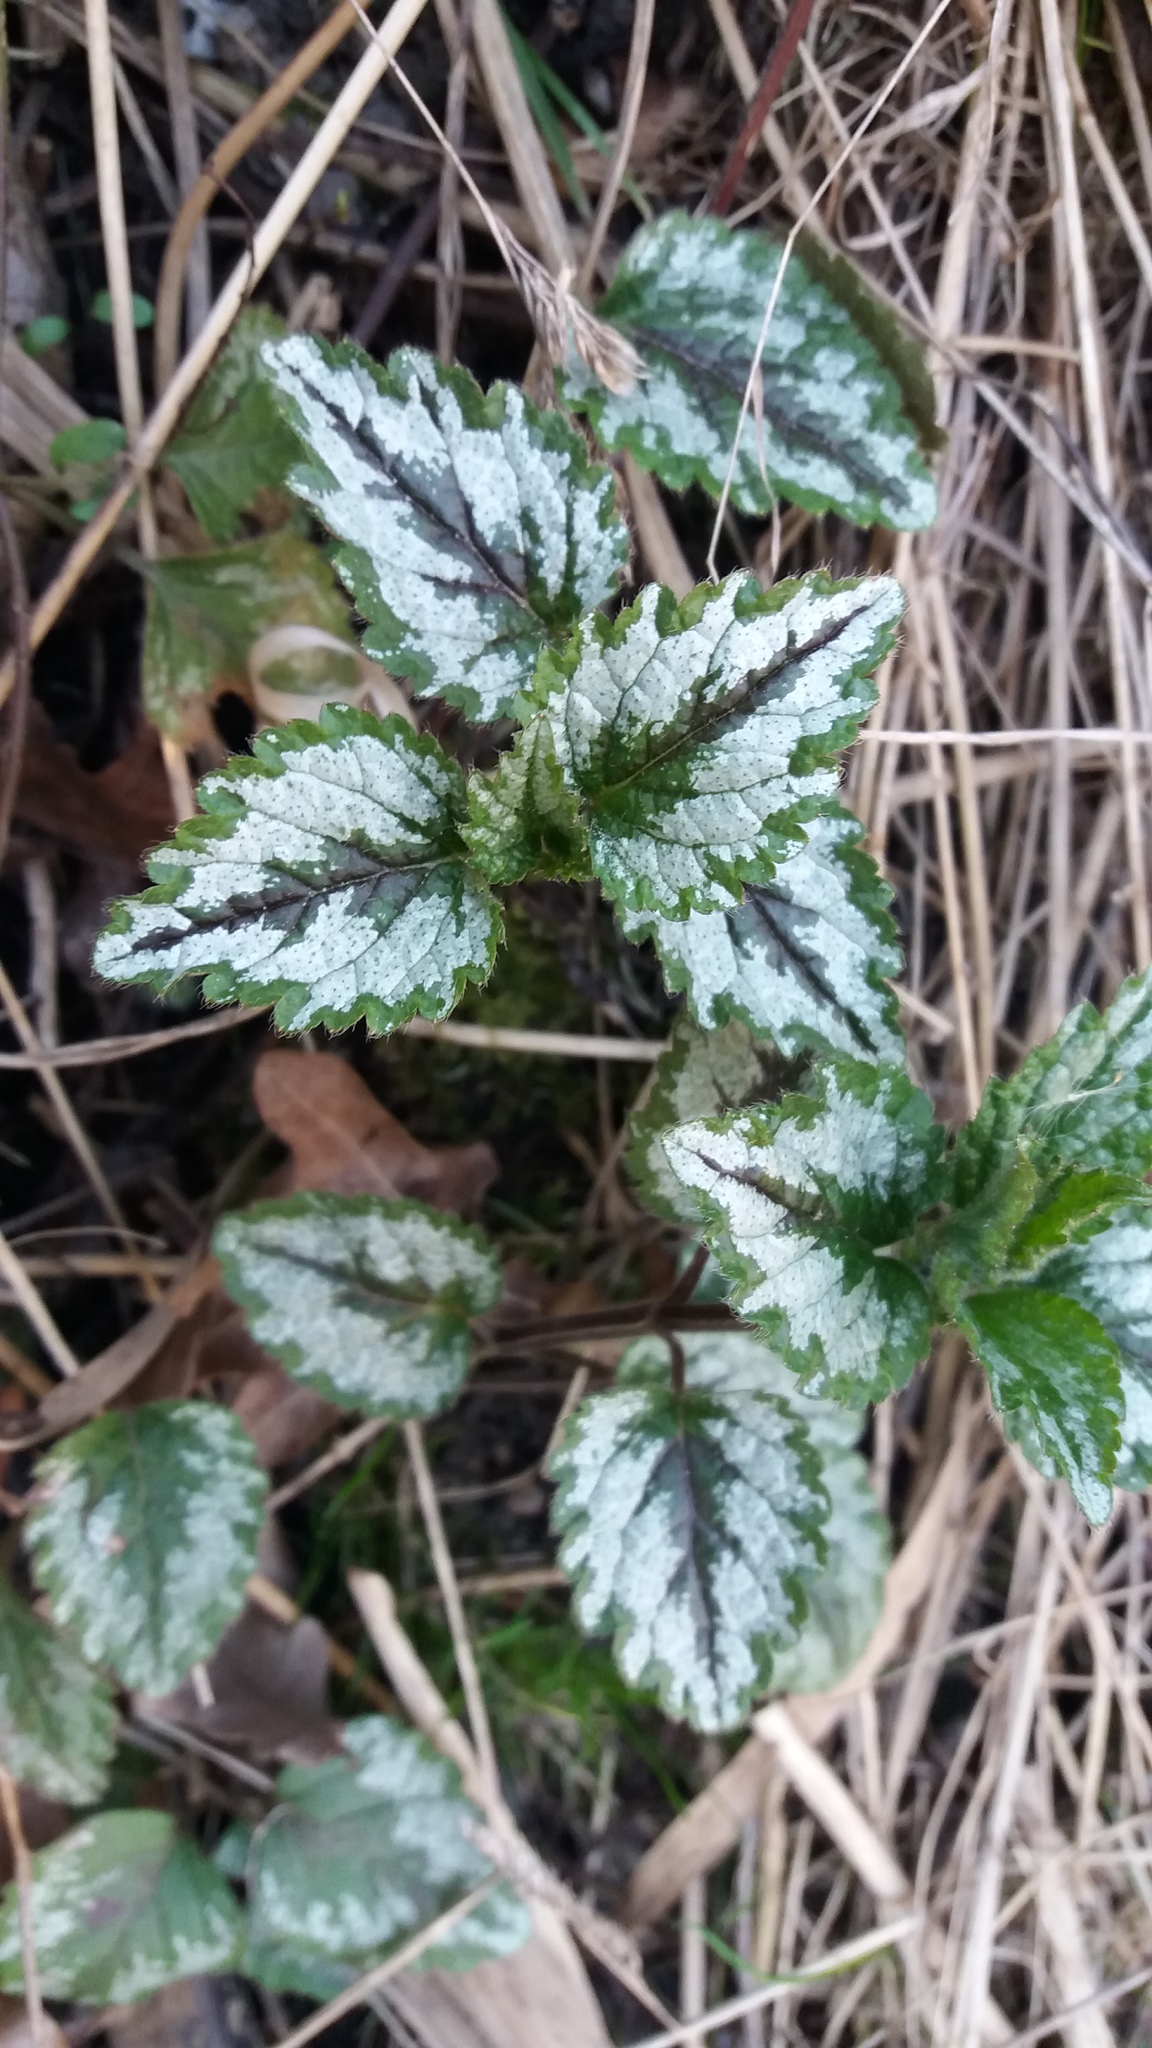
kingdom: Plantae
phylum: Tracheophyta
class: Magnoliopsida
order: Lamiales
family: Lamiaceae
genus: Lamium
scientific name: Lamium galeobdolon
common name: Yellow archangel
